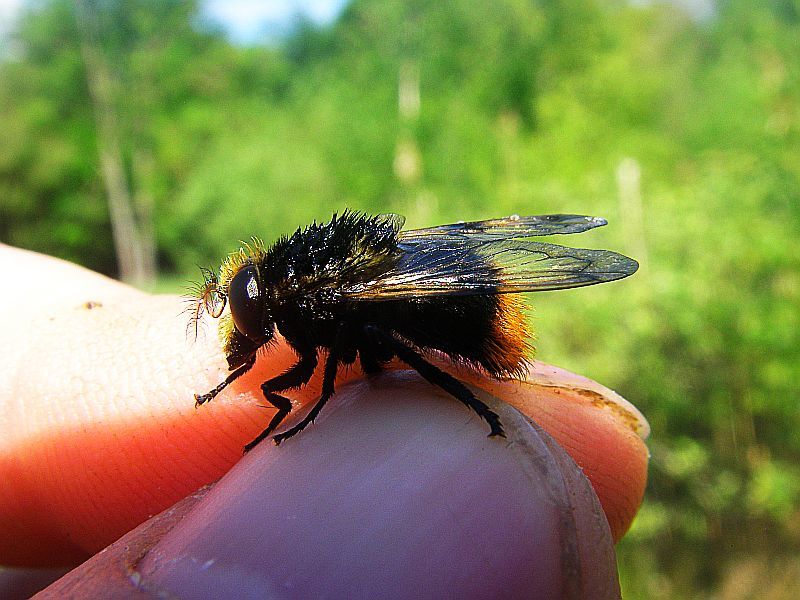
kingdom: Animalia
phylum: Arthropoda
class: Insecta
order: Diptera
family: Syrphidae
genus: Volucella
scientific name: Volucella bombylans
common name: Bumble bee hover fly
